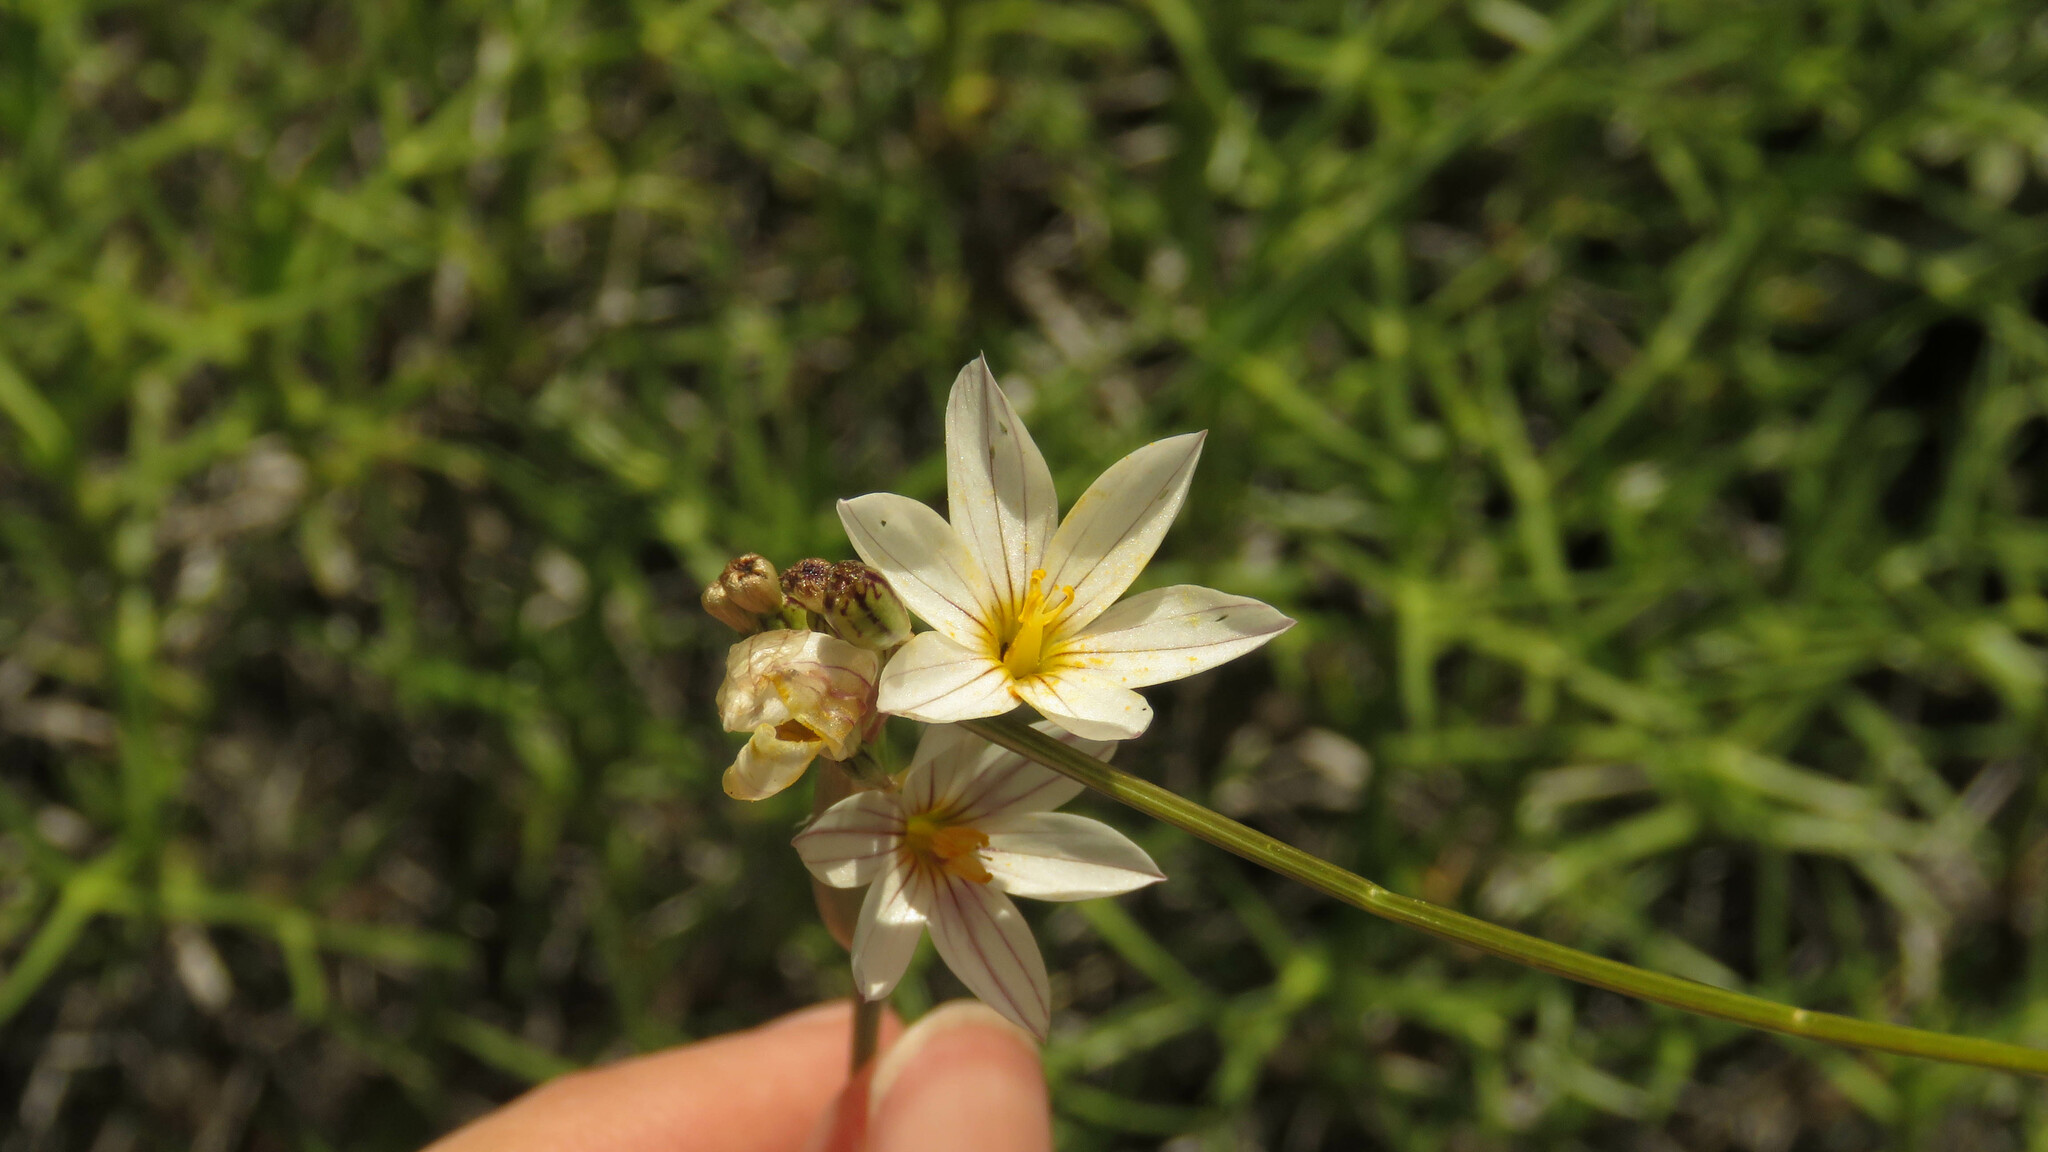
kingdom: Plantae
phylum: Tracheophyta
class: Liliopsida
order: Asparagales
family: Iridaceae
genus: Olsynium
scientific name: Olsynium junceum
